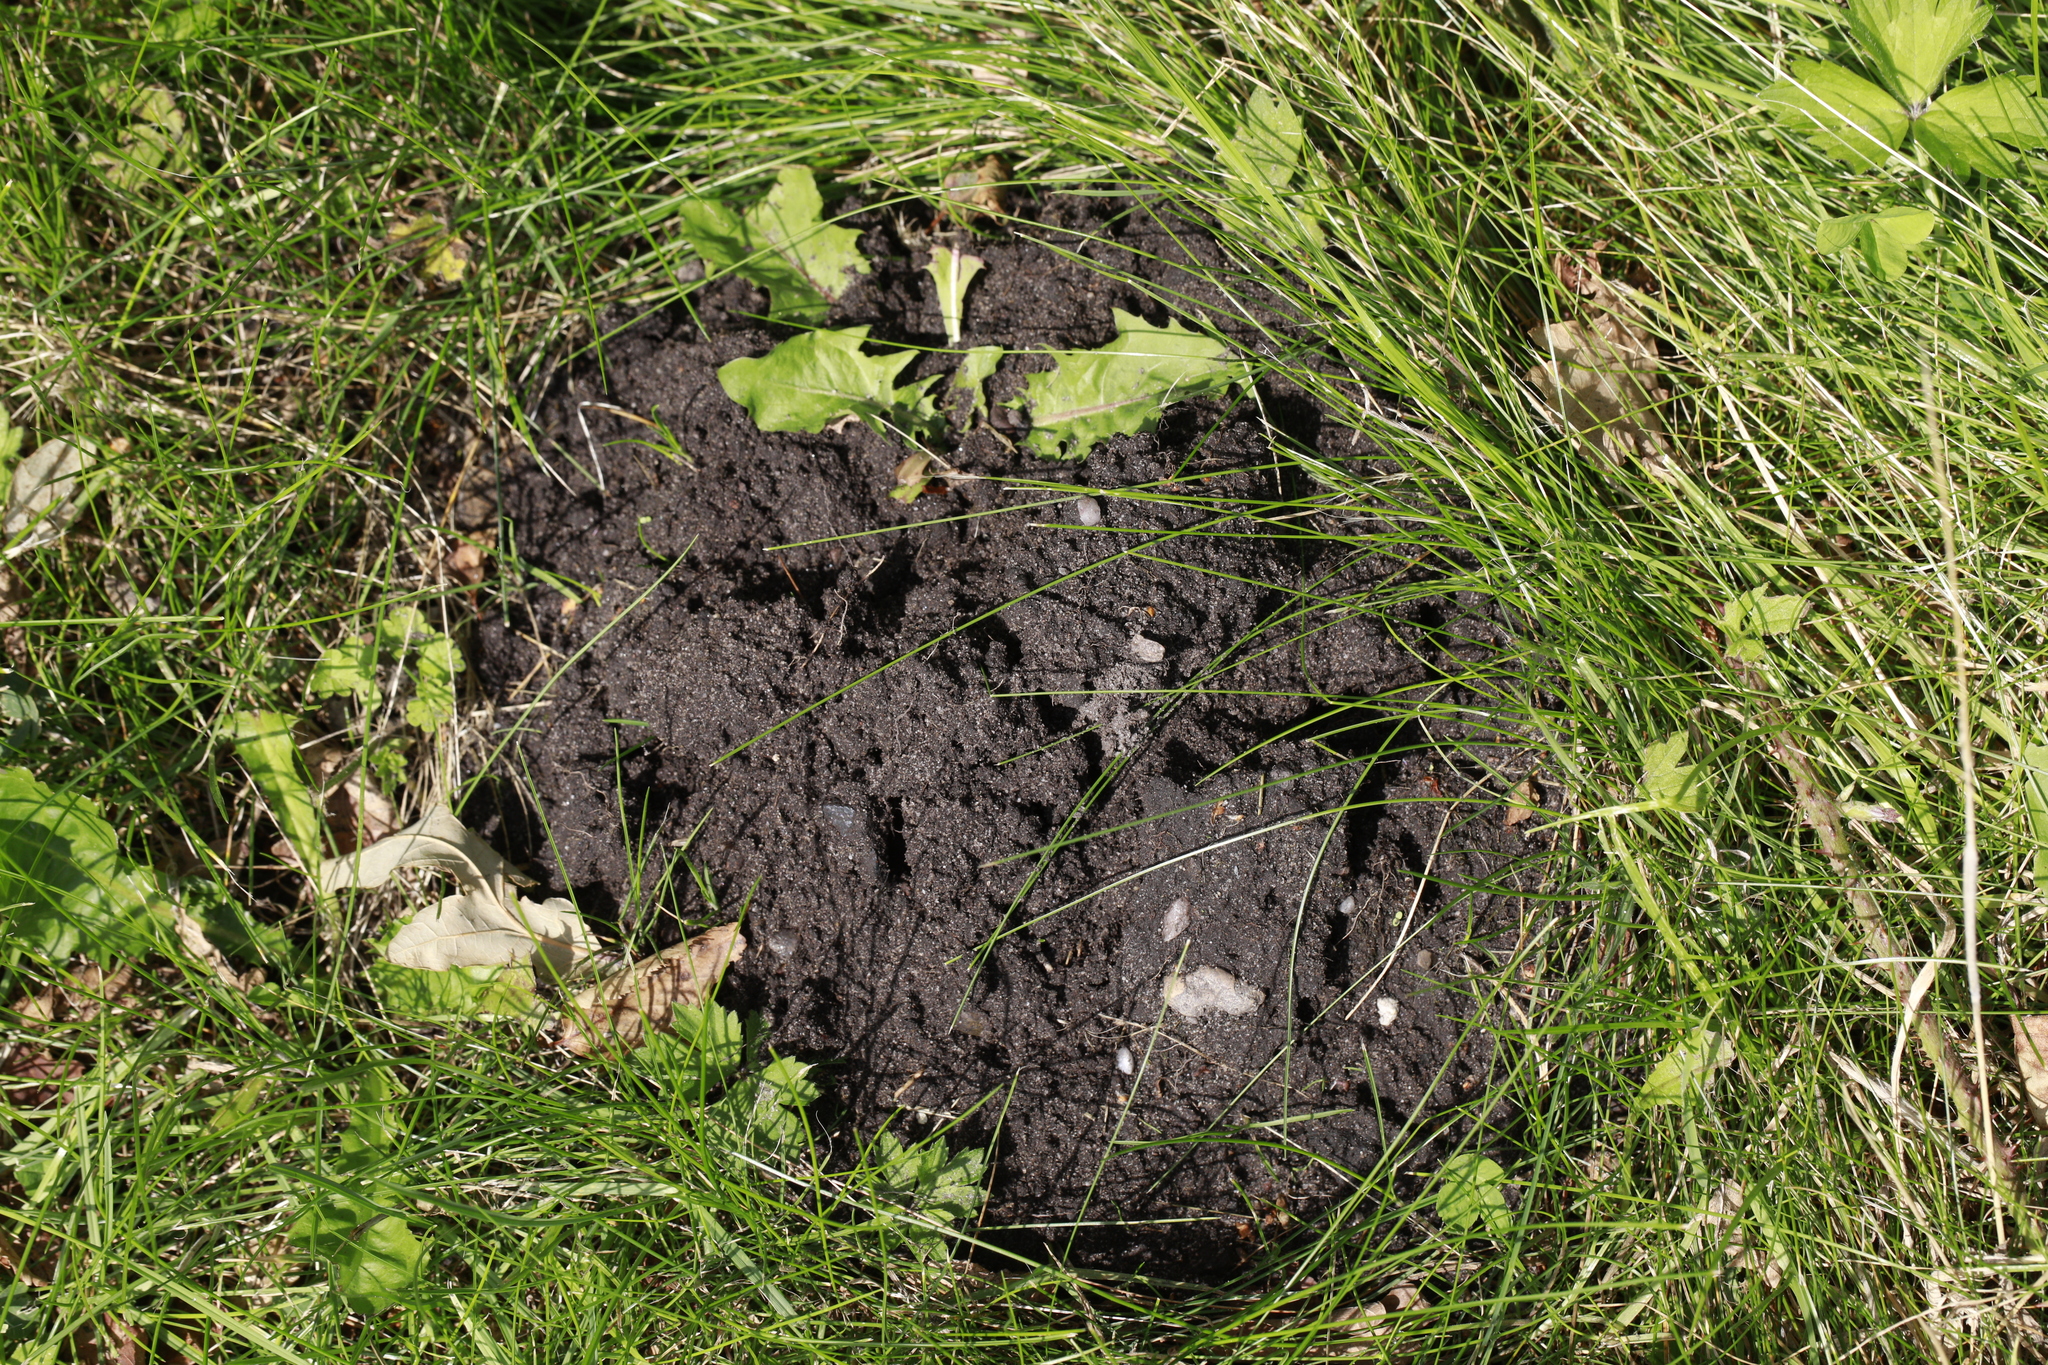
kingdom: Animalia
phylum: Chordata
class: Mammalia
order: Soricomorpha
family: Talpidae
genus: Talpa
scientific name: Talpa europaea
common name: European mole
